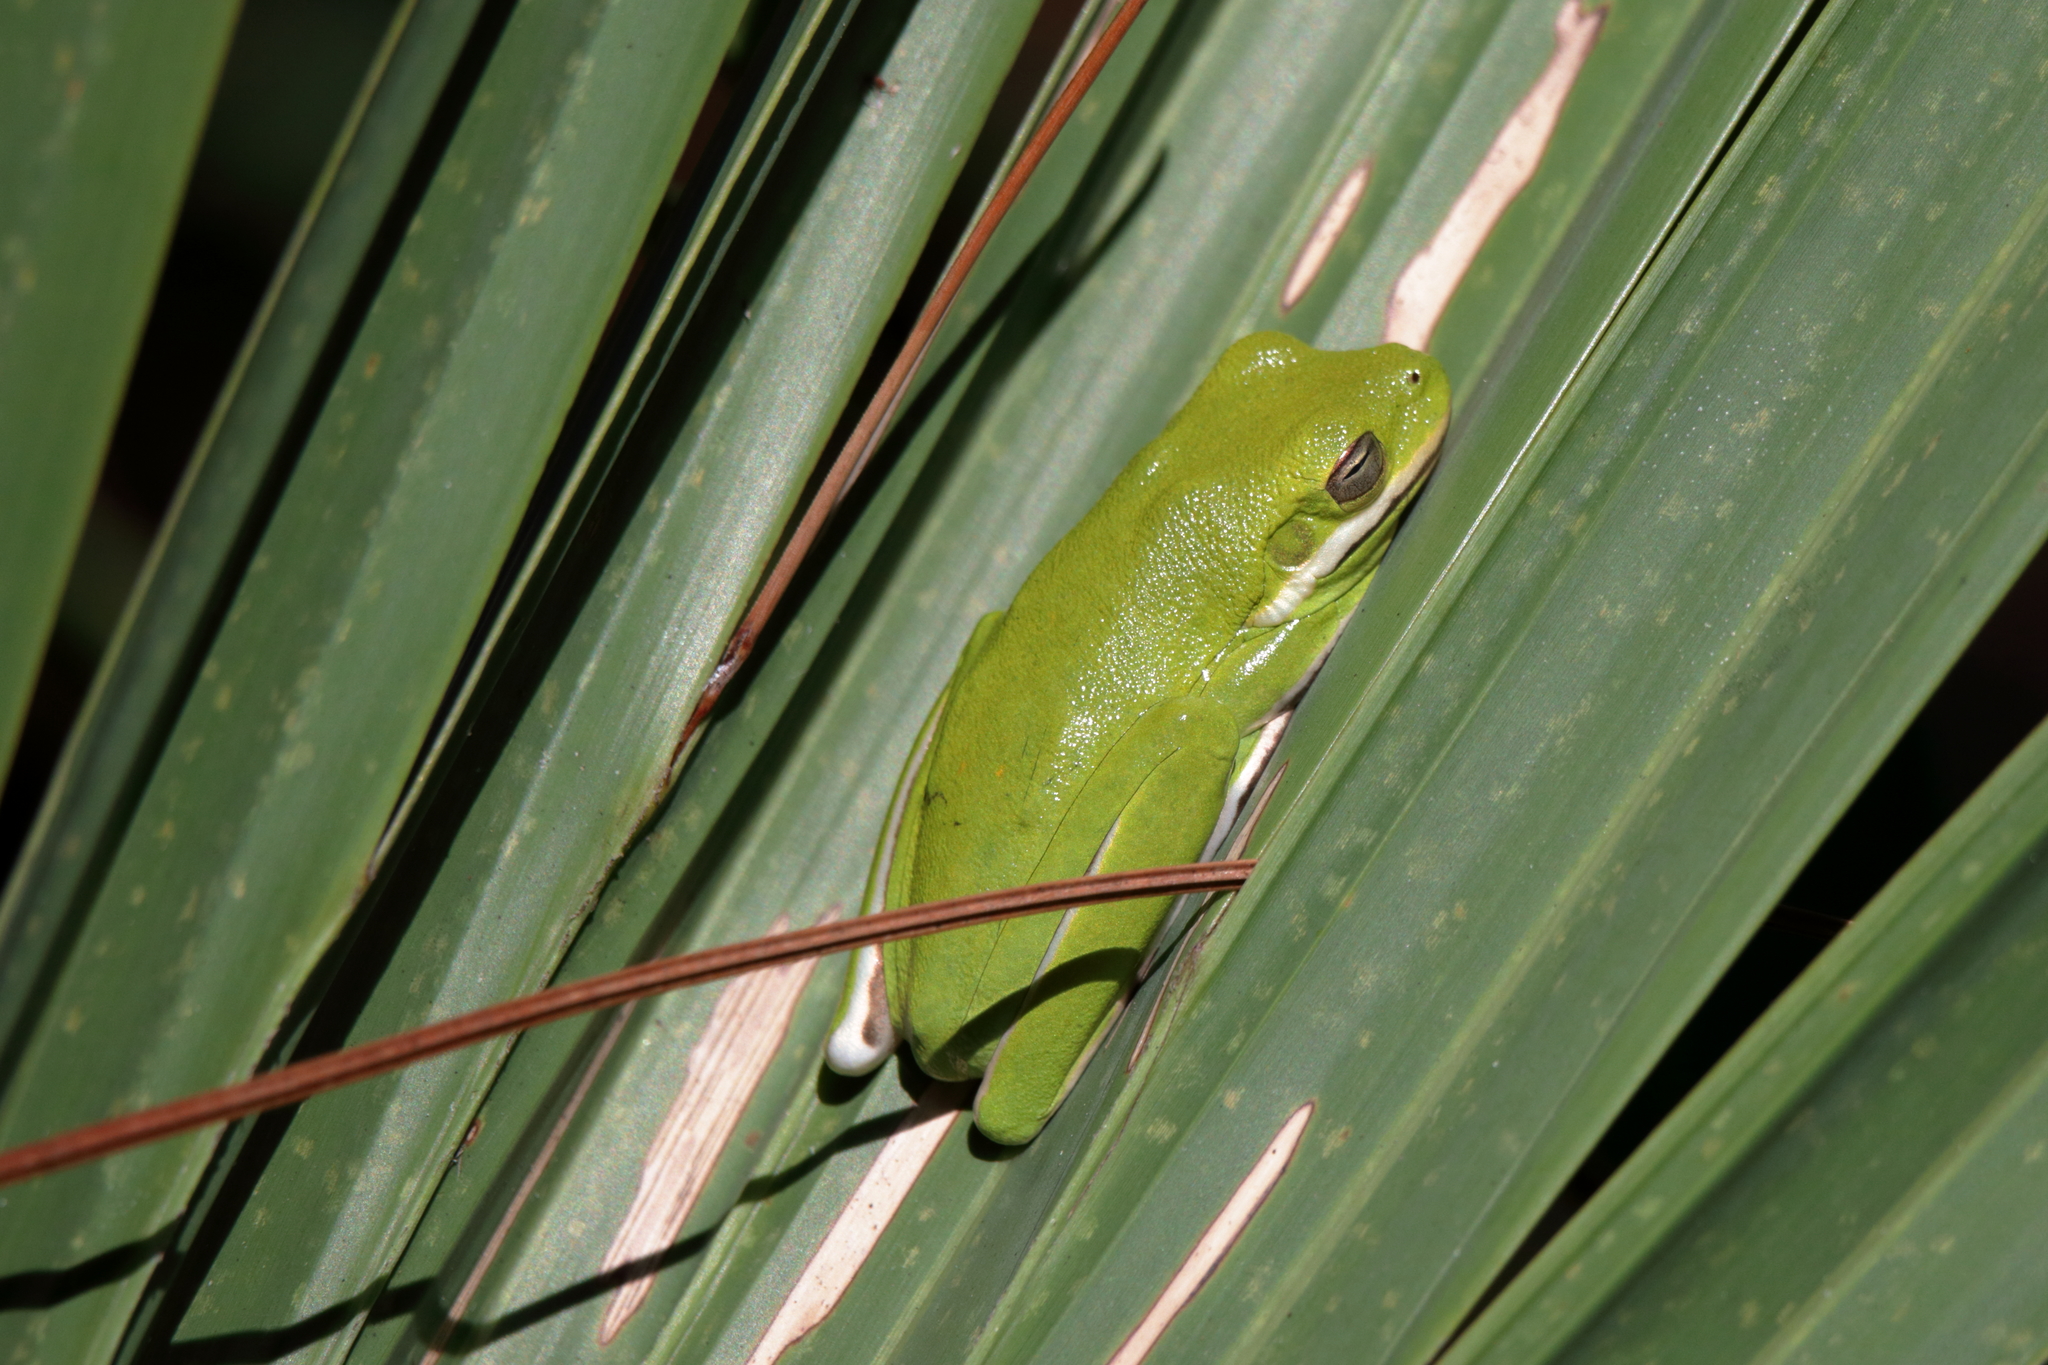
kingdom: Animalia
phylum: Chordata
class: Amphibia
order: Anura
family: Hylidae
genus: Dryophytes
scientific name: Dryophytes cinereus
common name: Green treefrog
